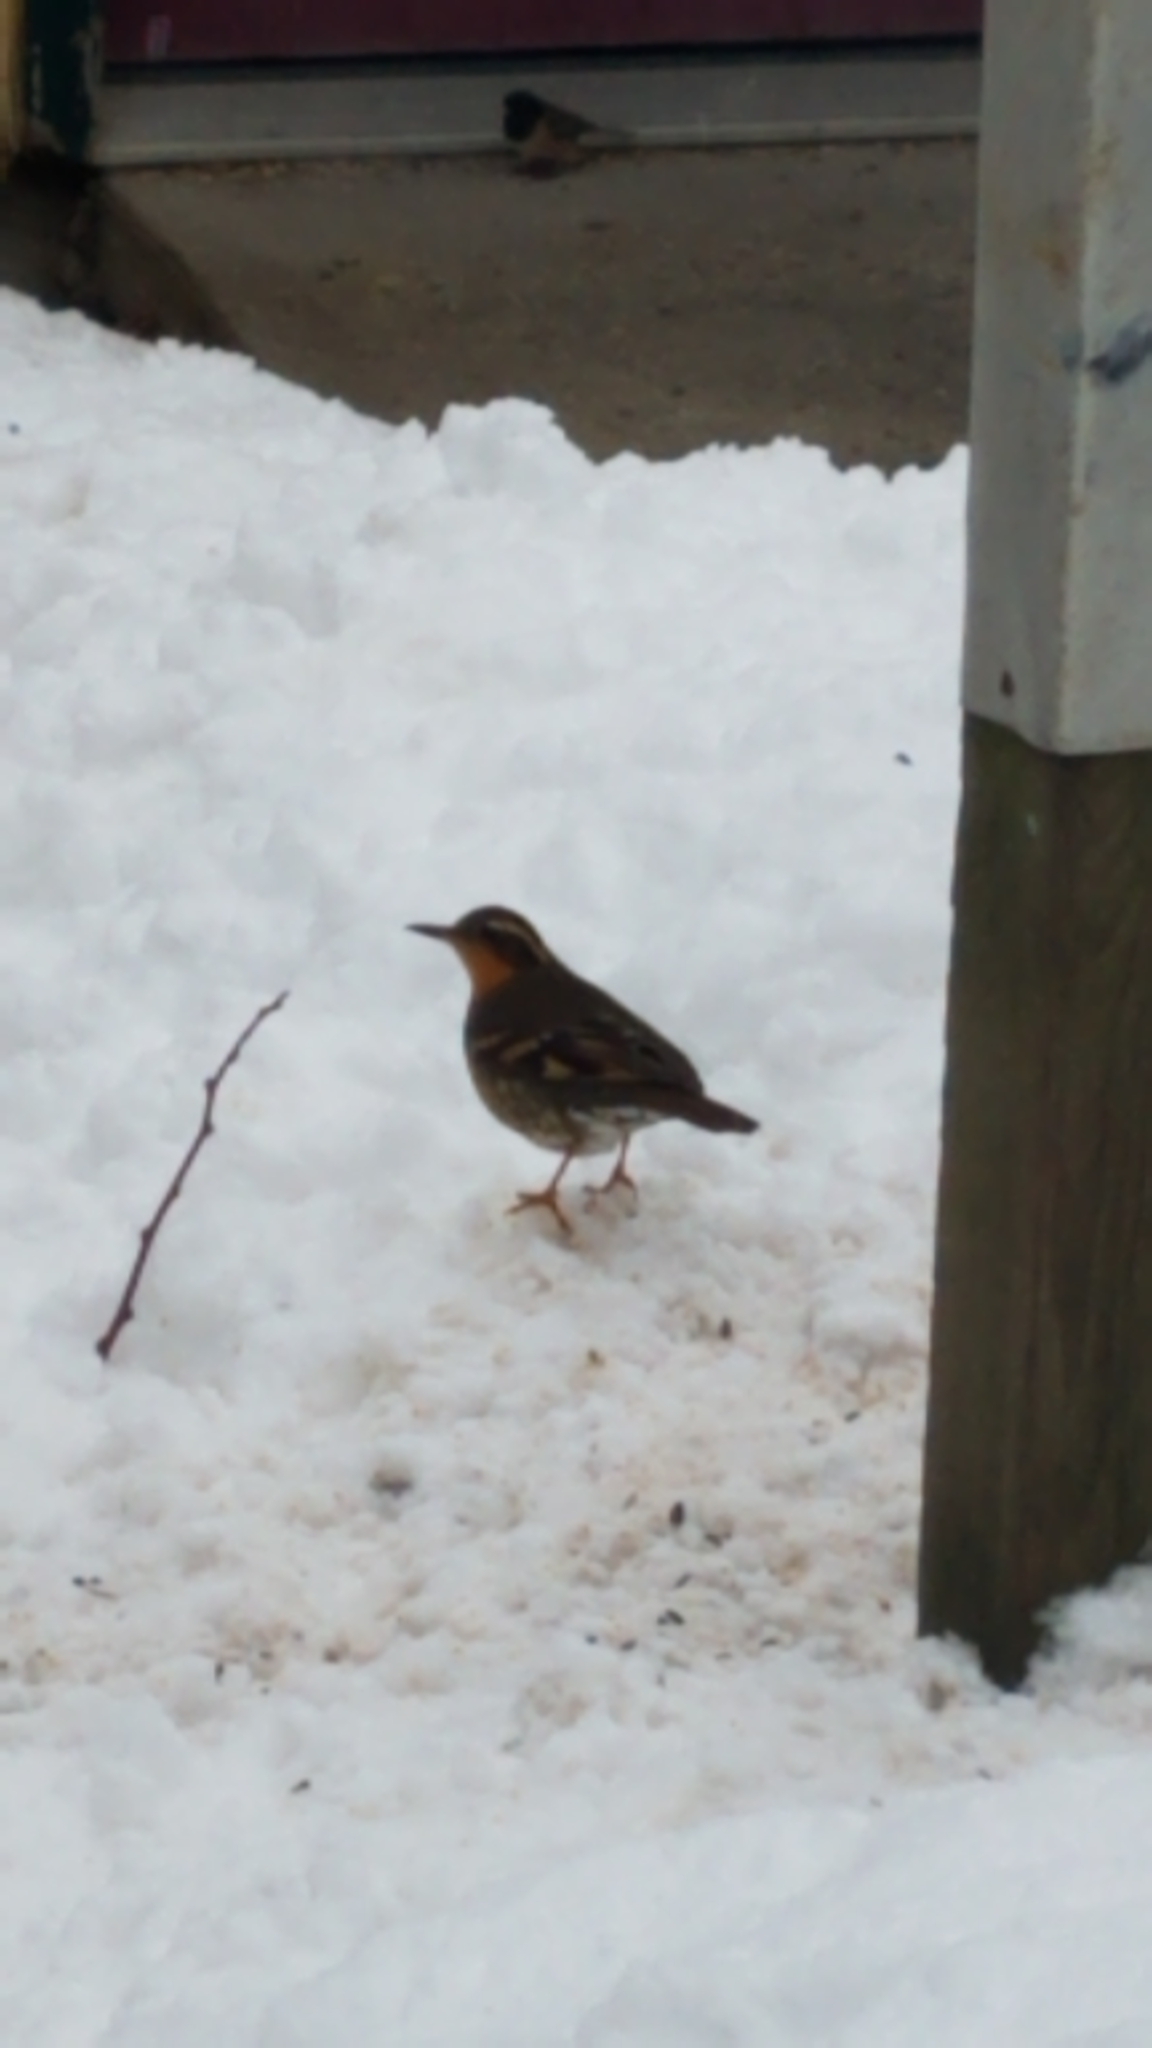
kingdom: Animalia
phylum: Chordata
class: Aves
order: Passeriformes
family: Turdidae
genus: Ixoreus
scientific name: Ixoreus naevius
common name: Varied thrush
